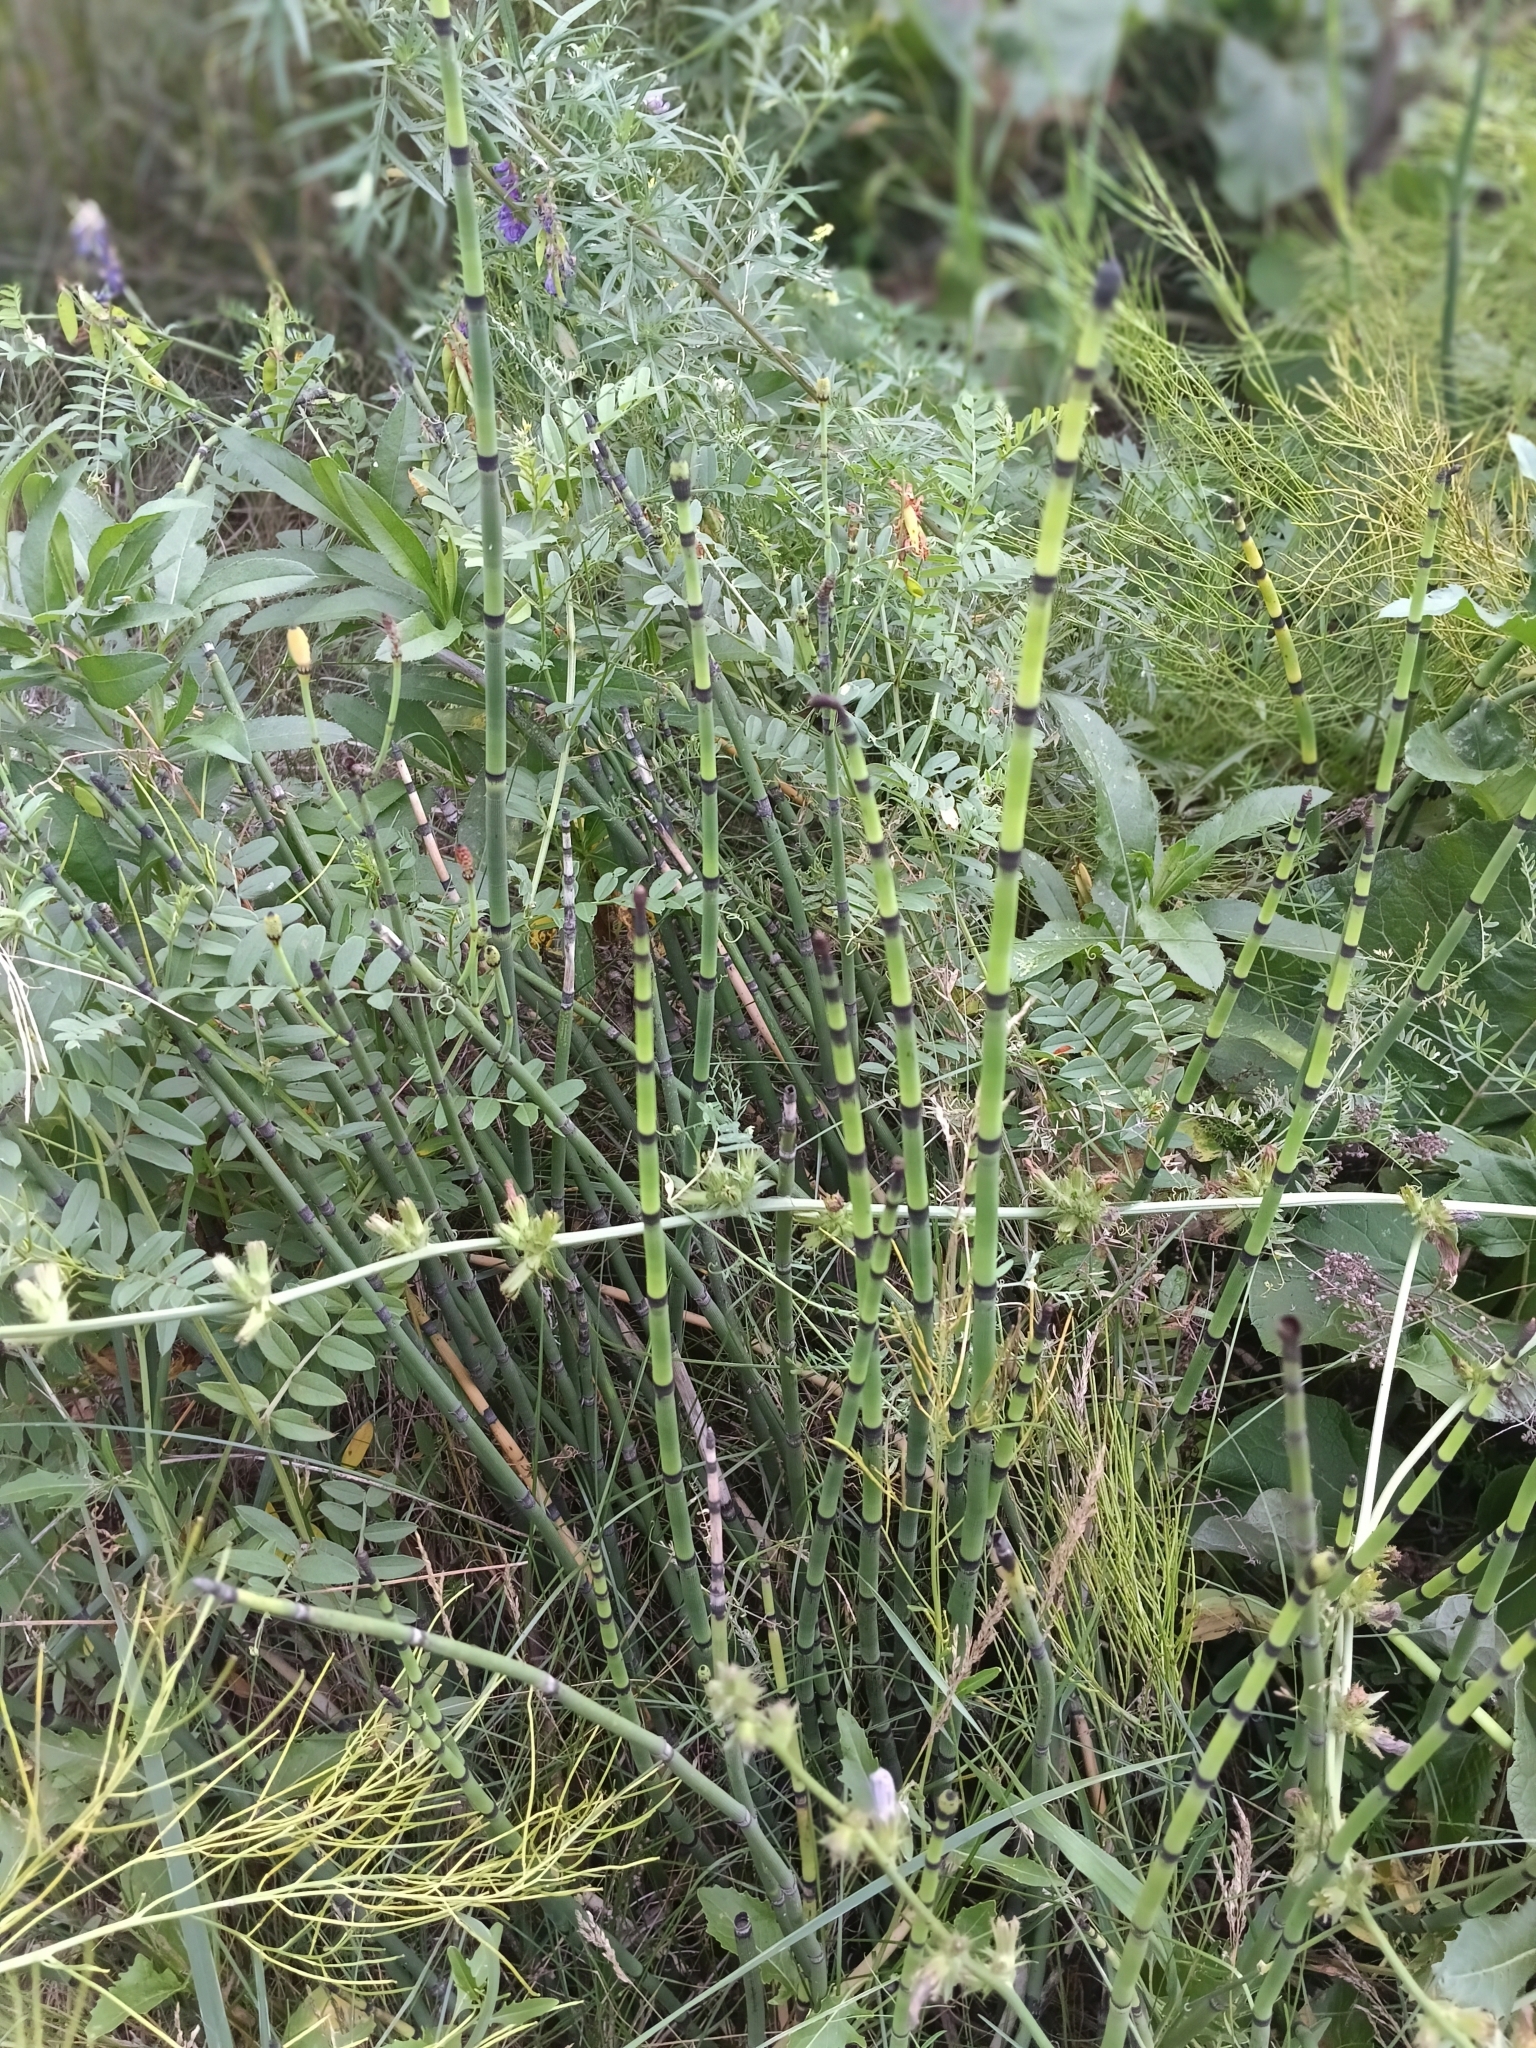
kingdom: Plantae
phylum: Tracheophyta
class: Polypodiopsida
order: Equisetales
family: Equisetaceae
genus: Equisetum
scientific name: Equisetum hyemale
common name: Rough horsetail
